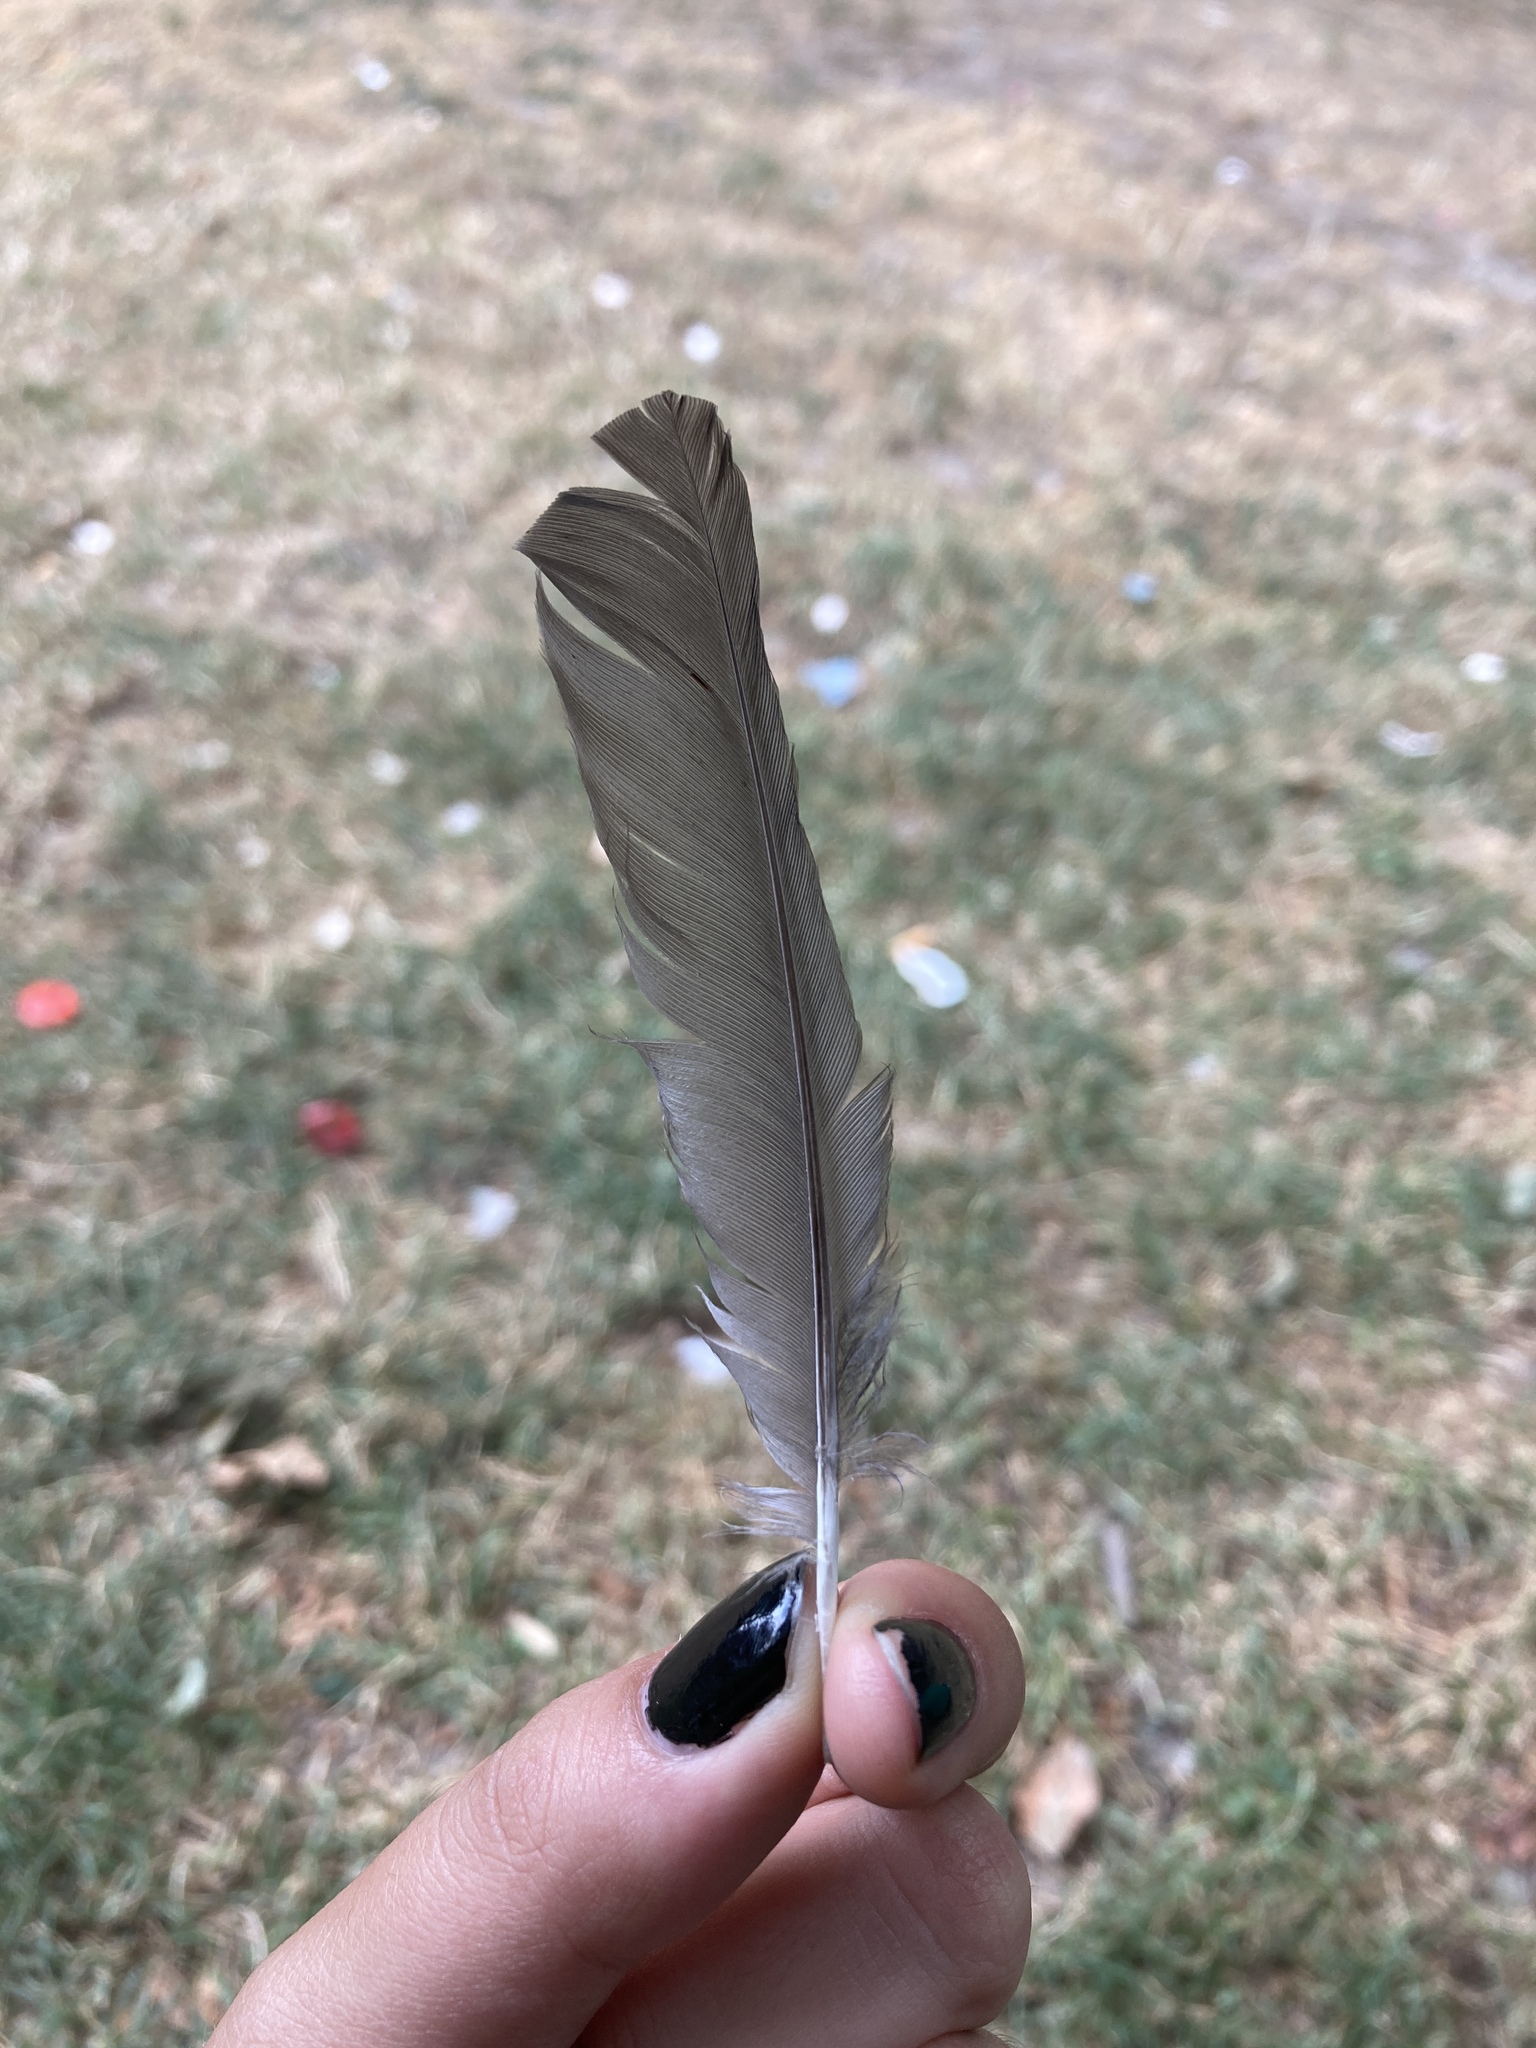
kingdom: Animalia
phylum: Chordata
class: Aves
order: Passeriformes
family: Turdidae
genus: Turdus
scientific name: Turdus merula
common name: Common blackbird
